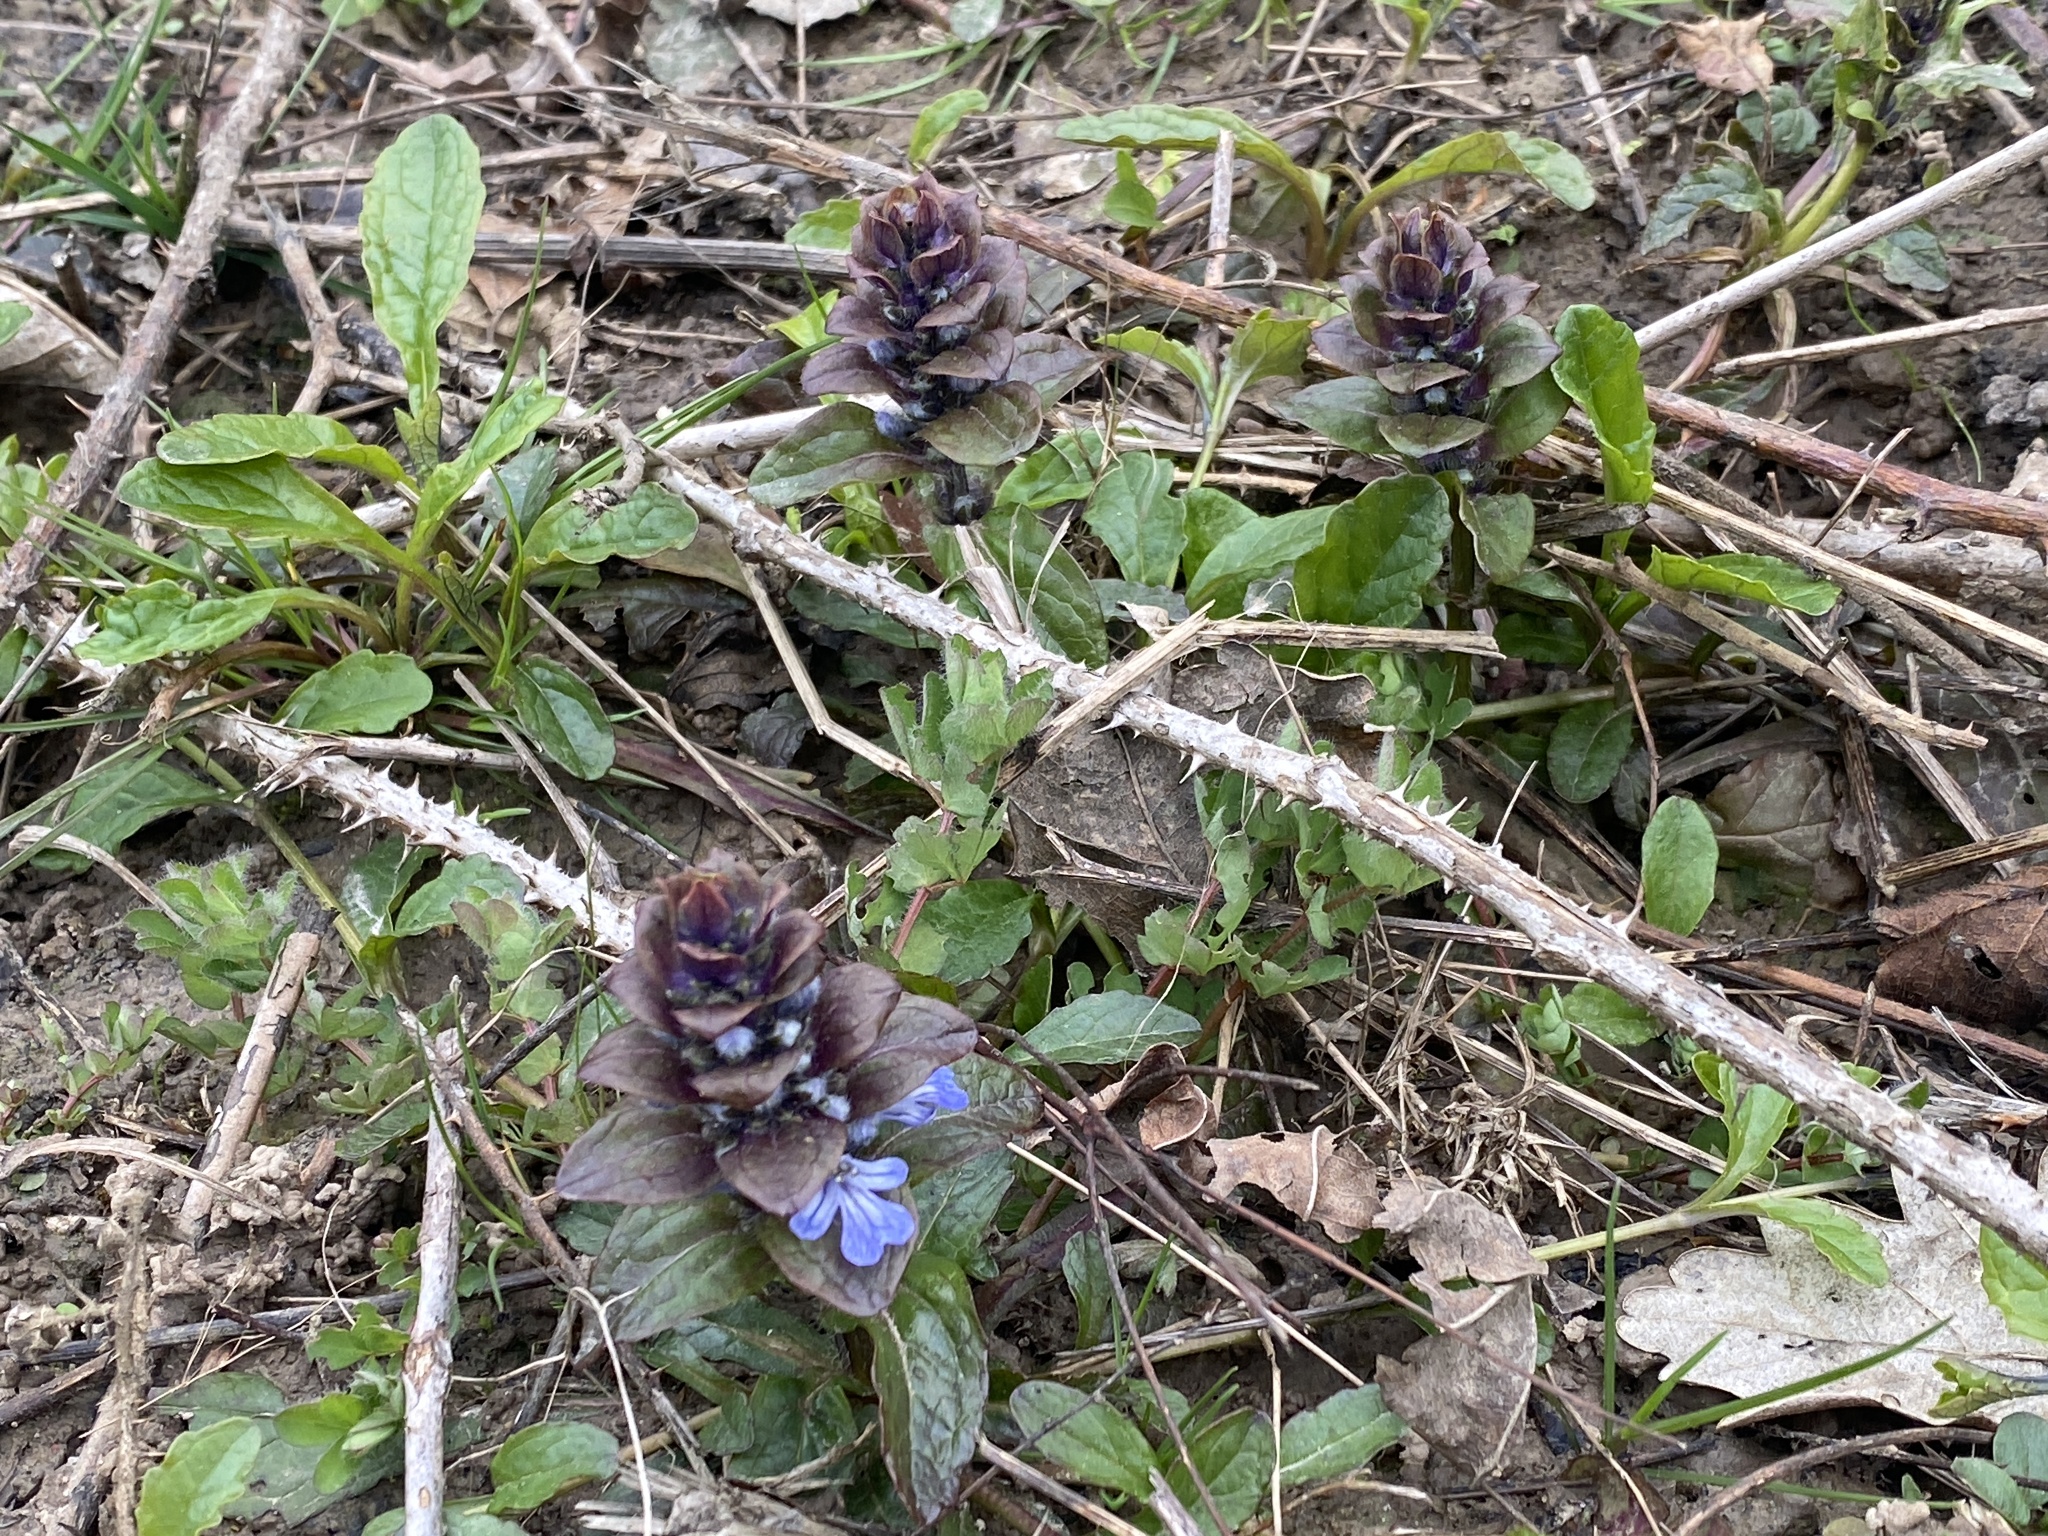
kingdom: Plantae
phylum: Tracheophyta
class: Magnoliopsida
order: Lamiales
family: Lamiaceae
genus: Ajuga
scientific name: Ajuga reptans
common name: Bugle
